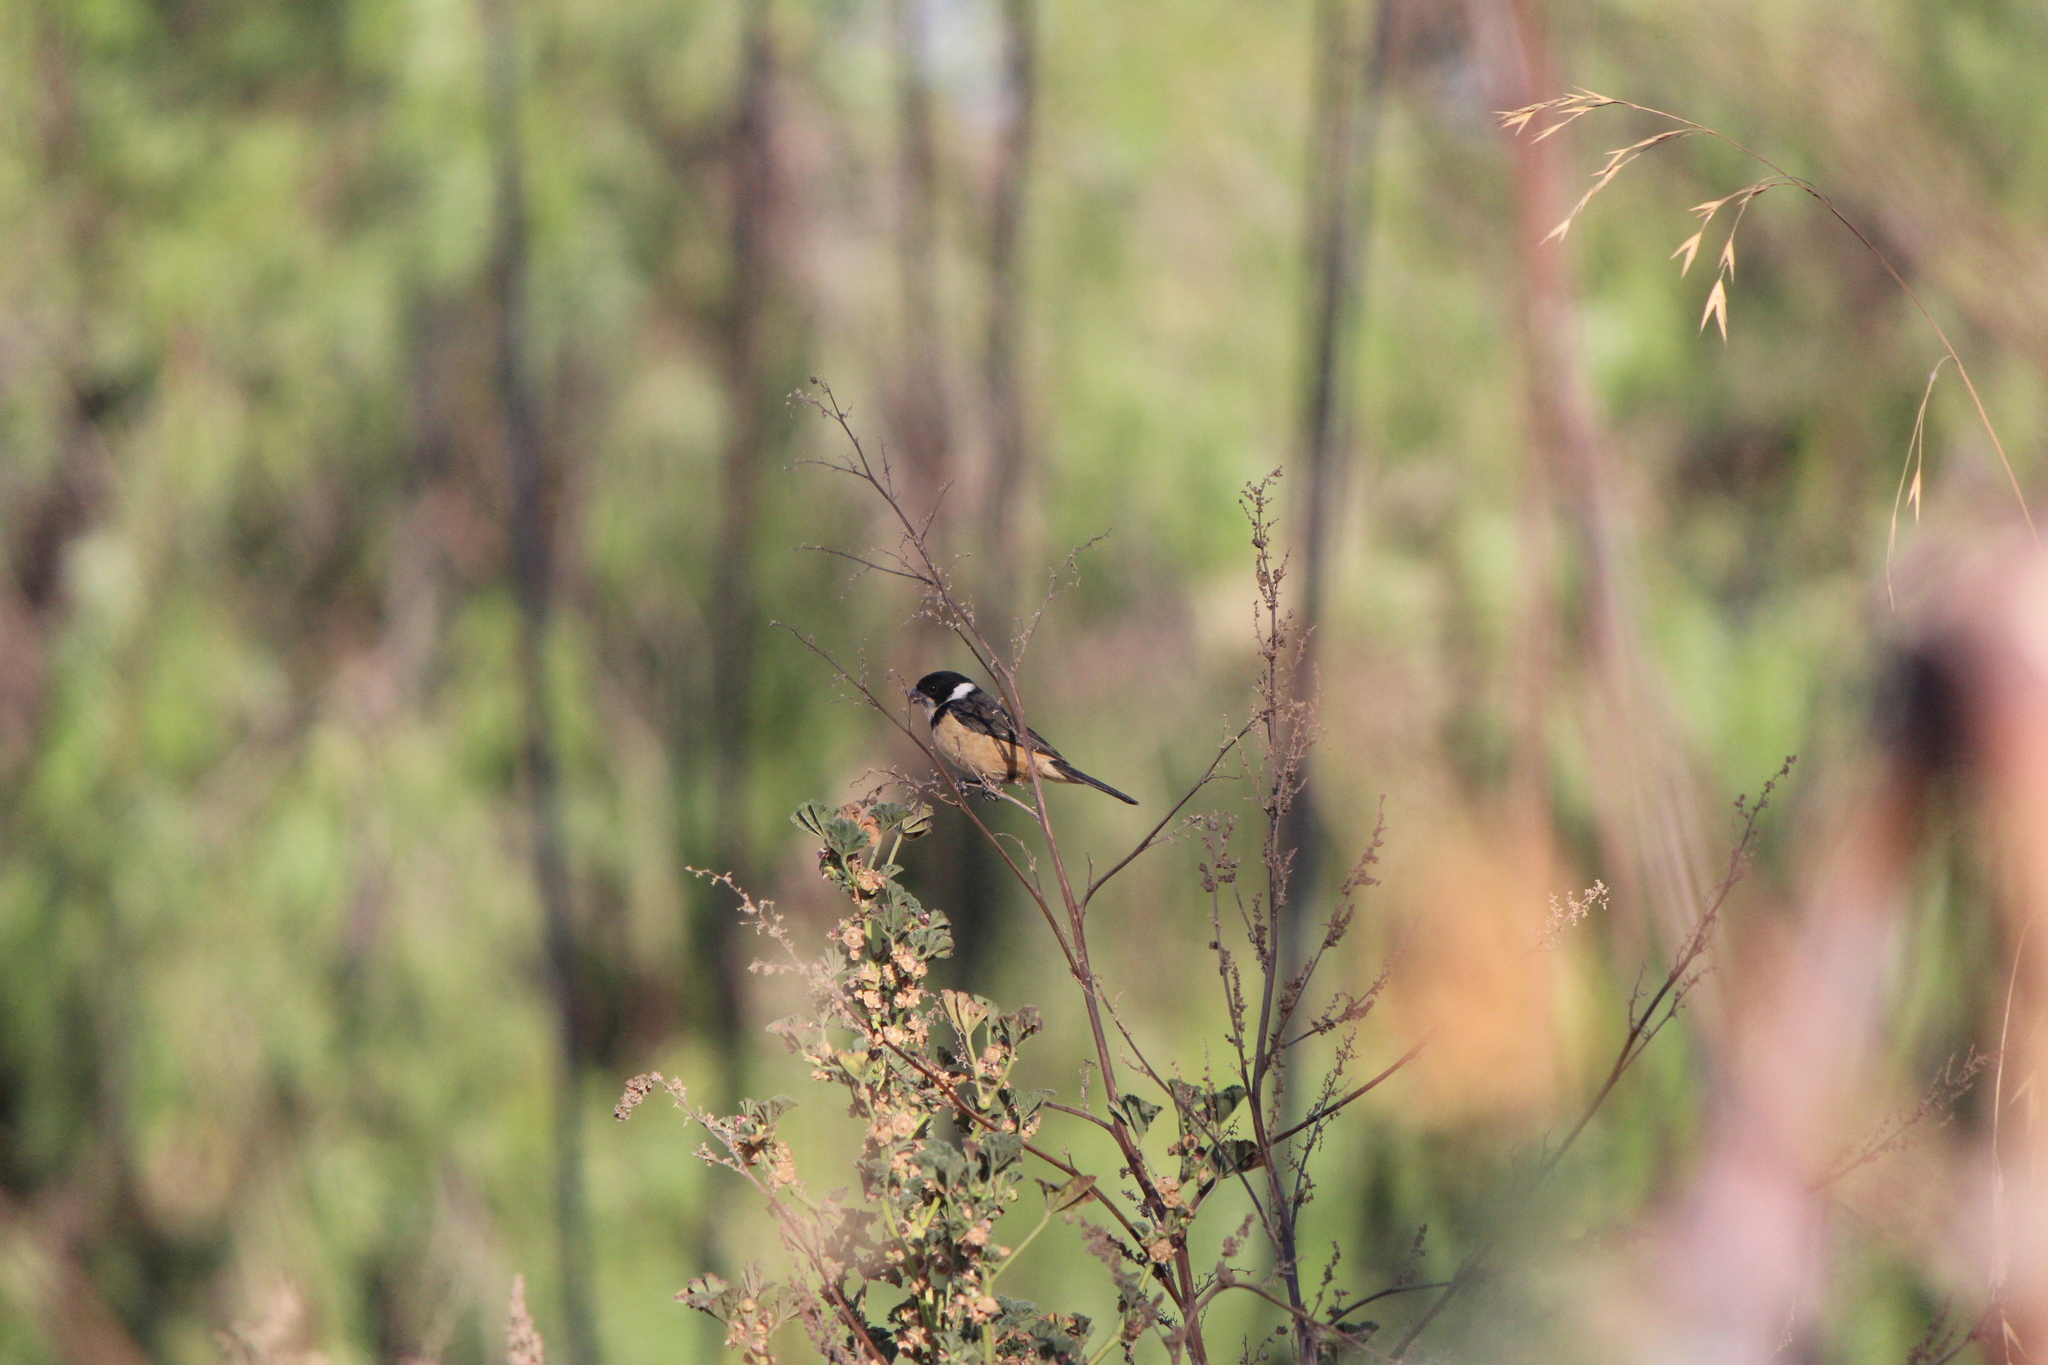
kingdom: Animalia
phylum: Chordata
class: Aves
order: Passeriformes
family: Thraupidae
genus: Sporophila
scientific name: Sporophila torqueola
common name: White-collared seedeater
